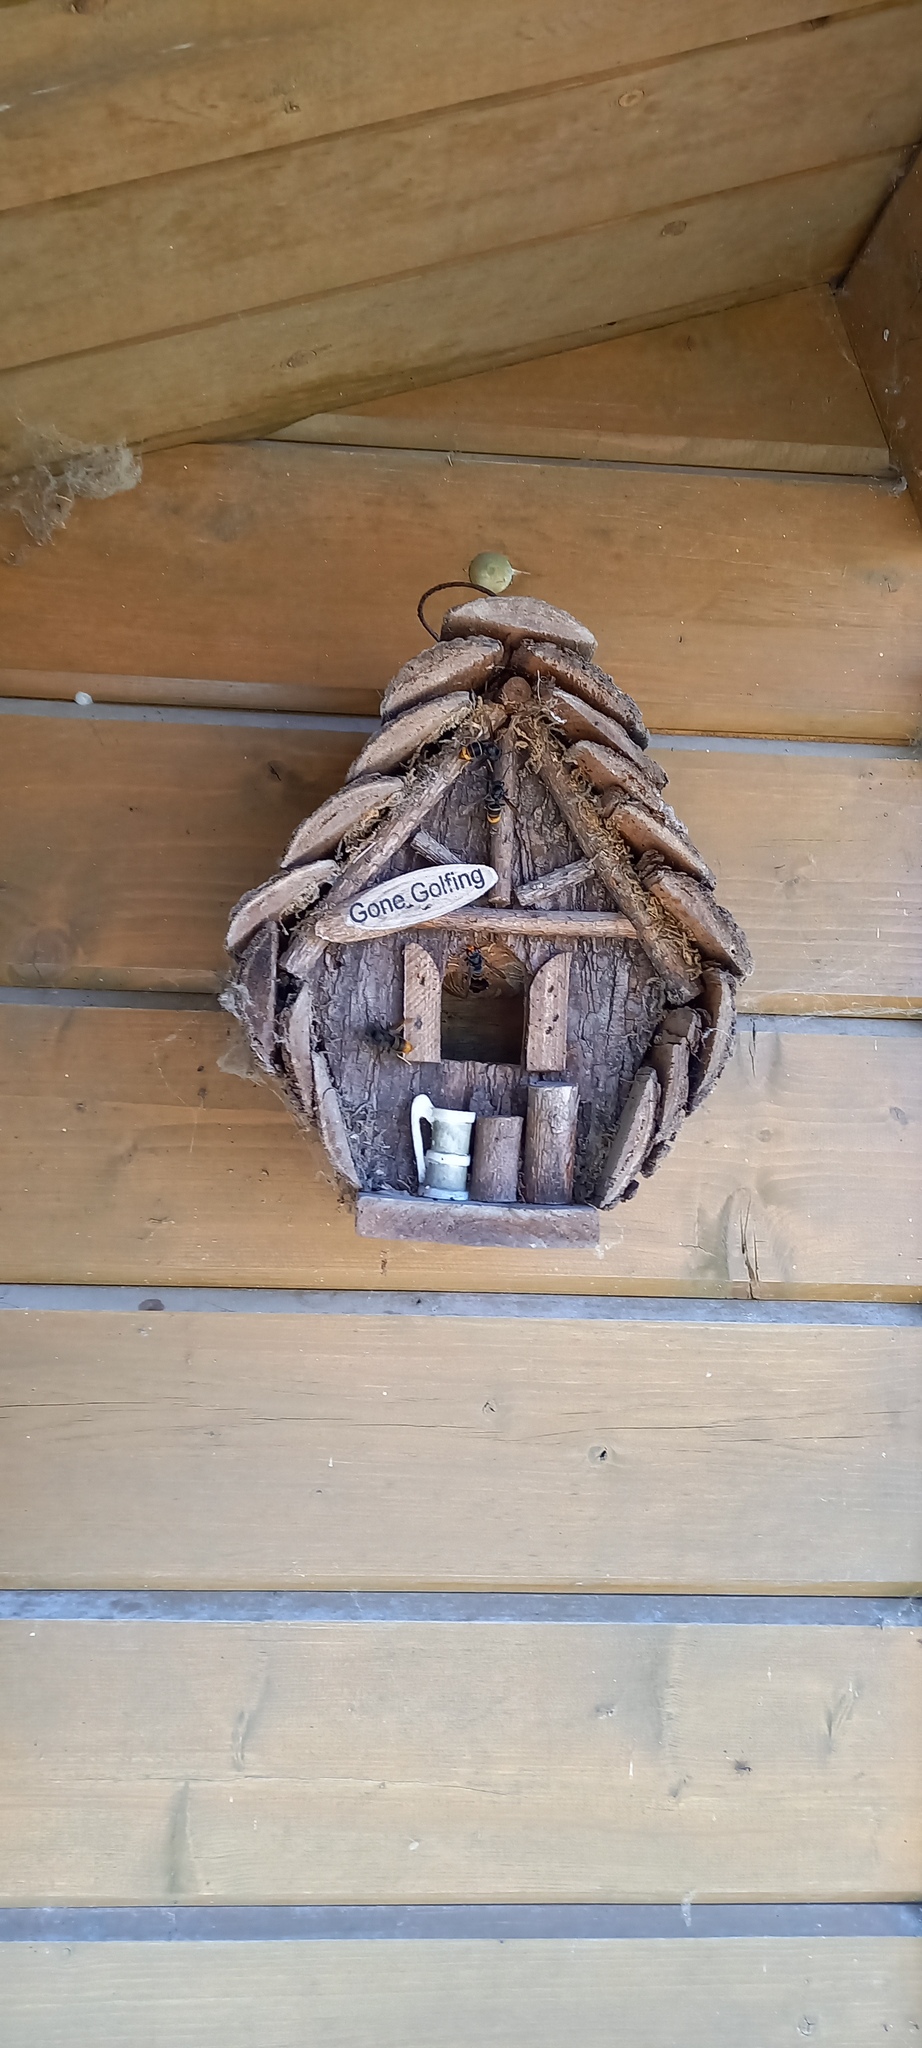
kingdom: Animalia
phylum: Arthropoda
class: Insecta
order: Hymenoptera
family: Vespidae
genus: Vespa
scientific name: Vespa velutina
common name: Asian hornet
